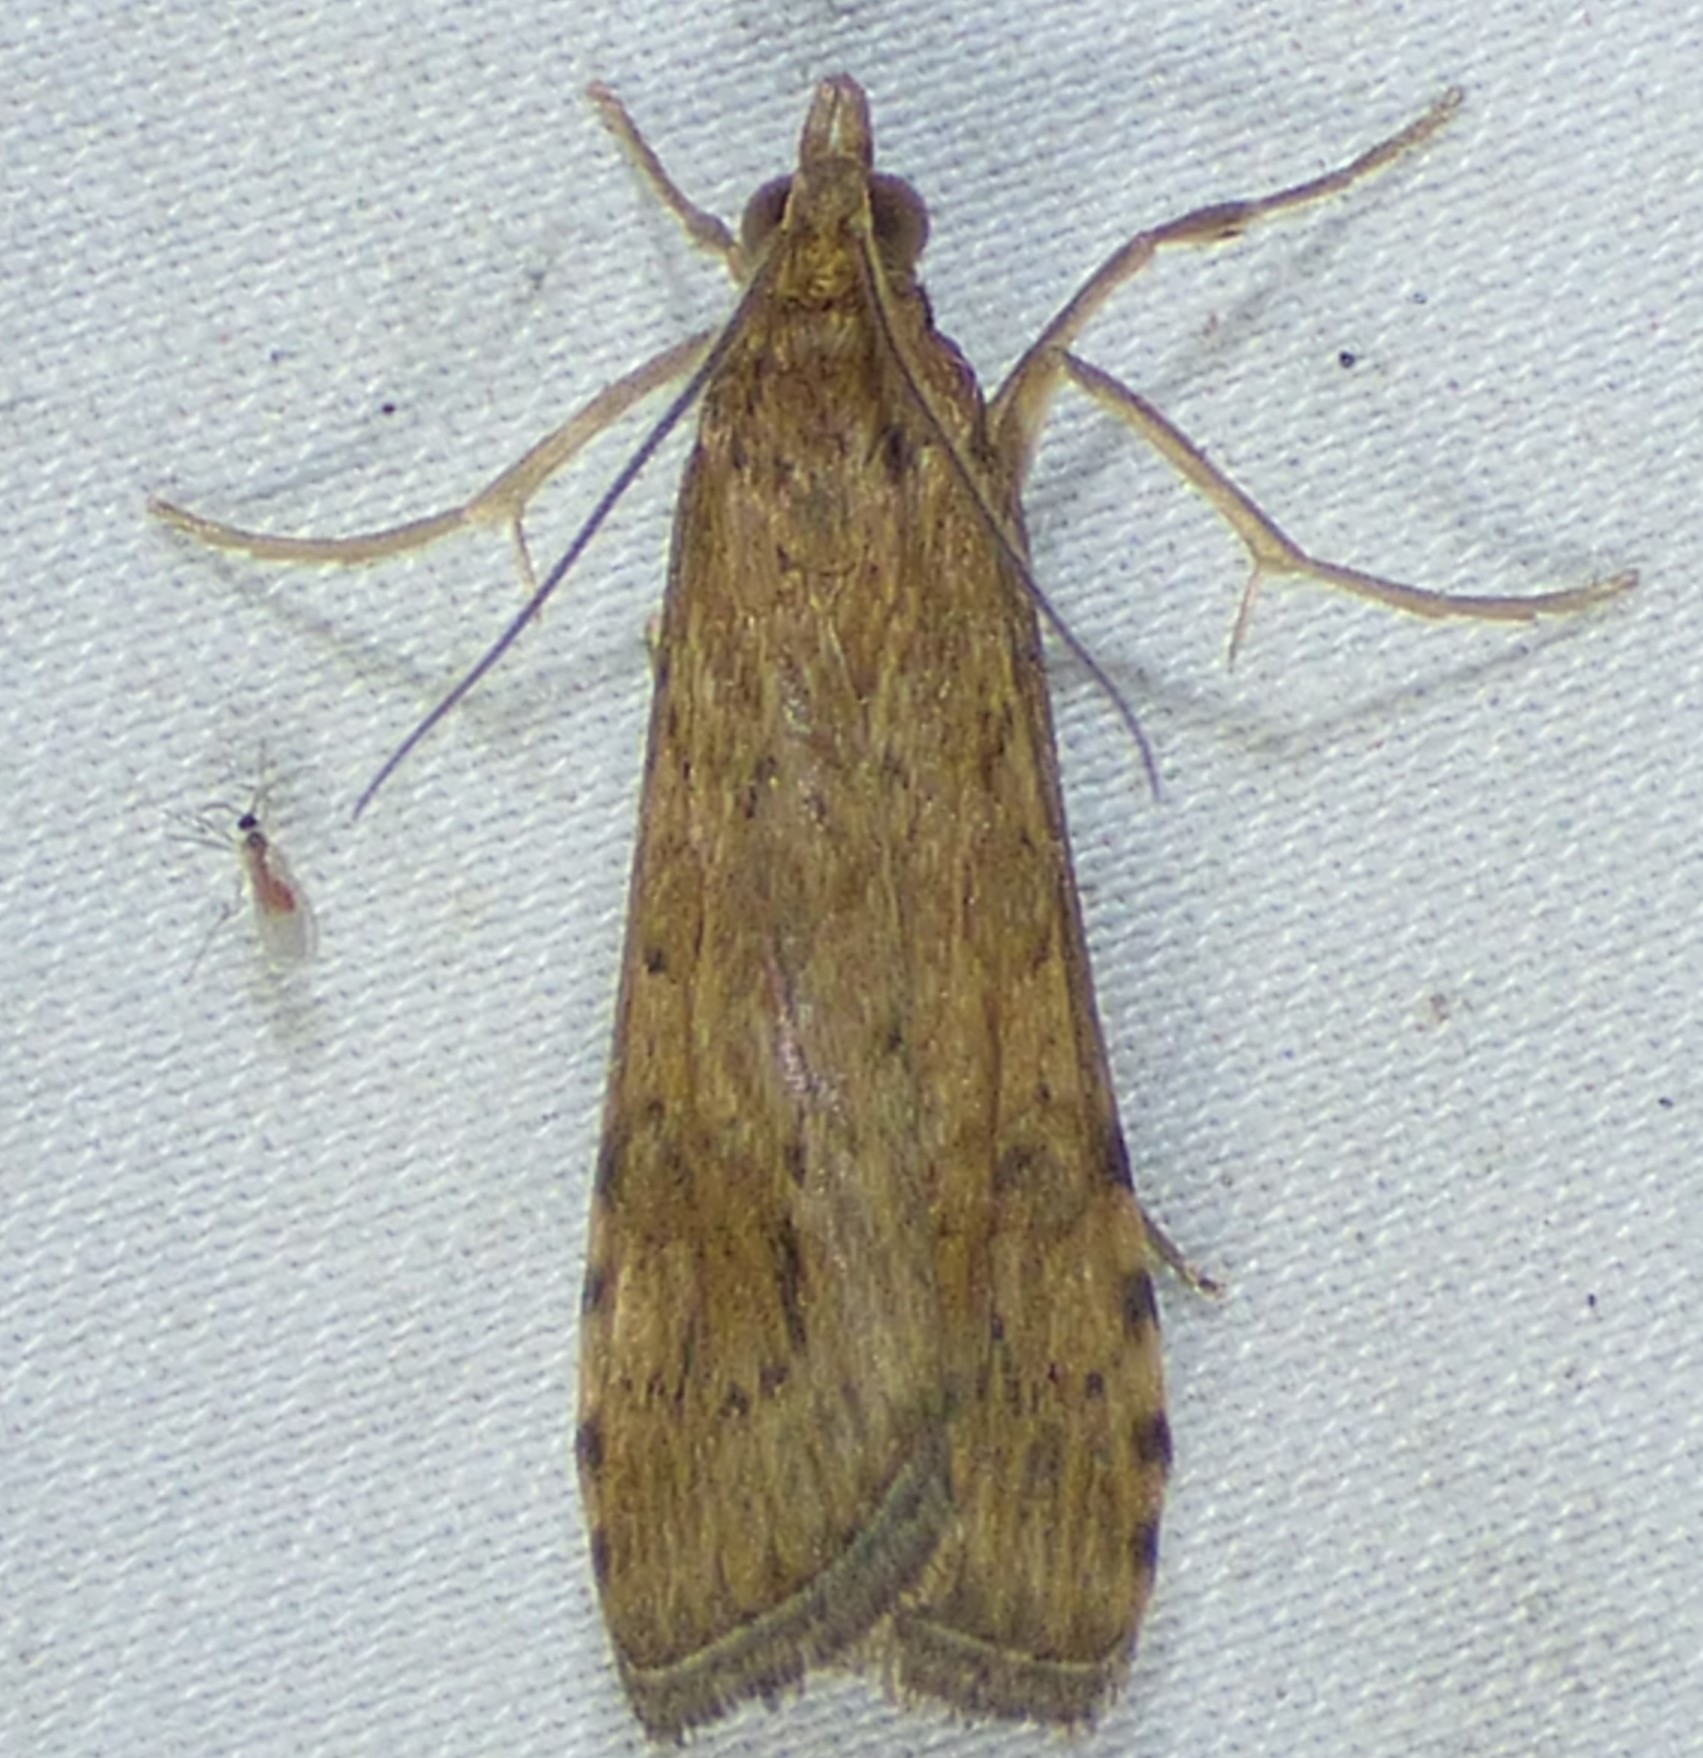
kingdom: Animalia
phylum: Arthropoda
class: Insecta
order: Lepidoptera
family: Crambidae
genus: Nomophila
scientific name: Nomophila nearctica
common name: American rush veneer
